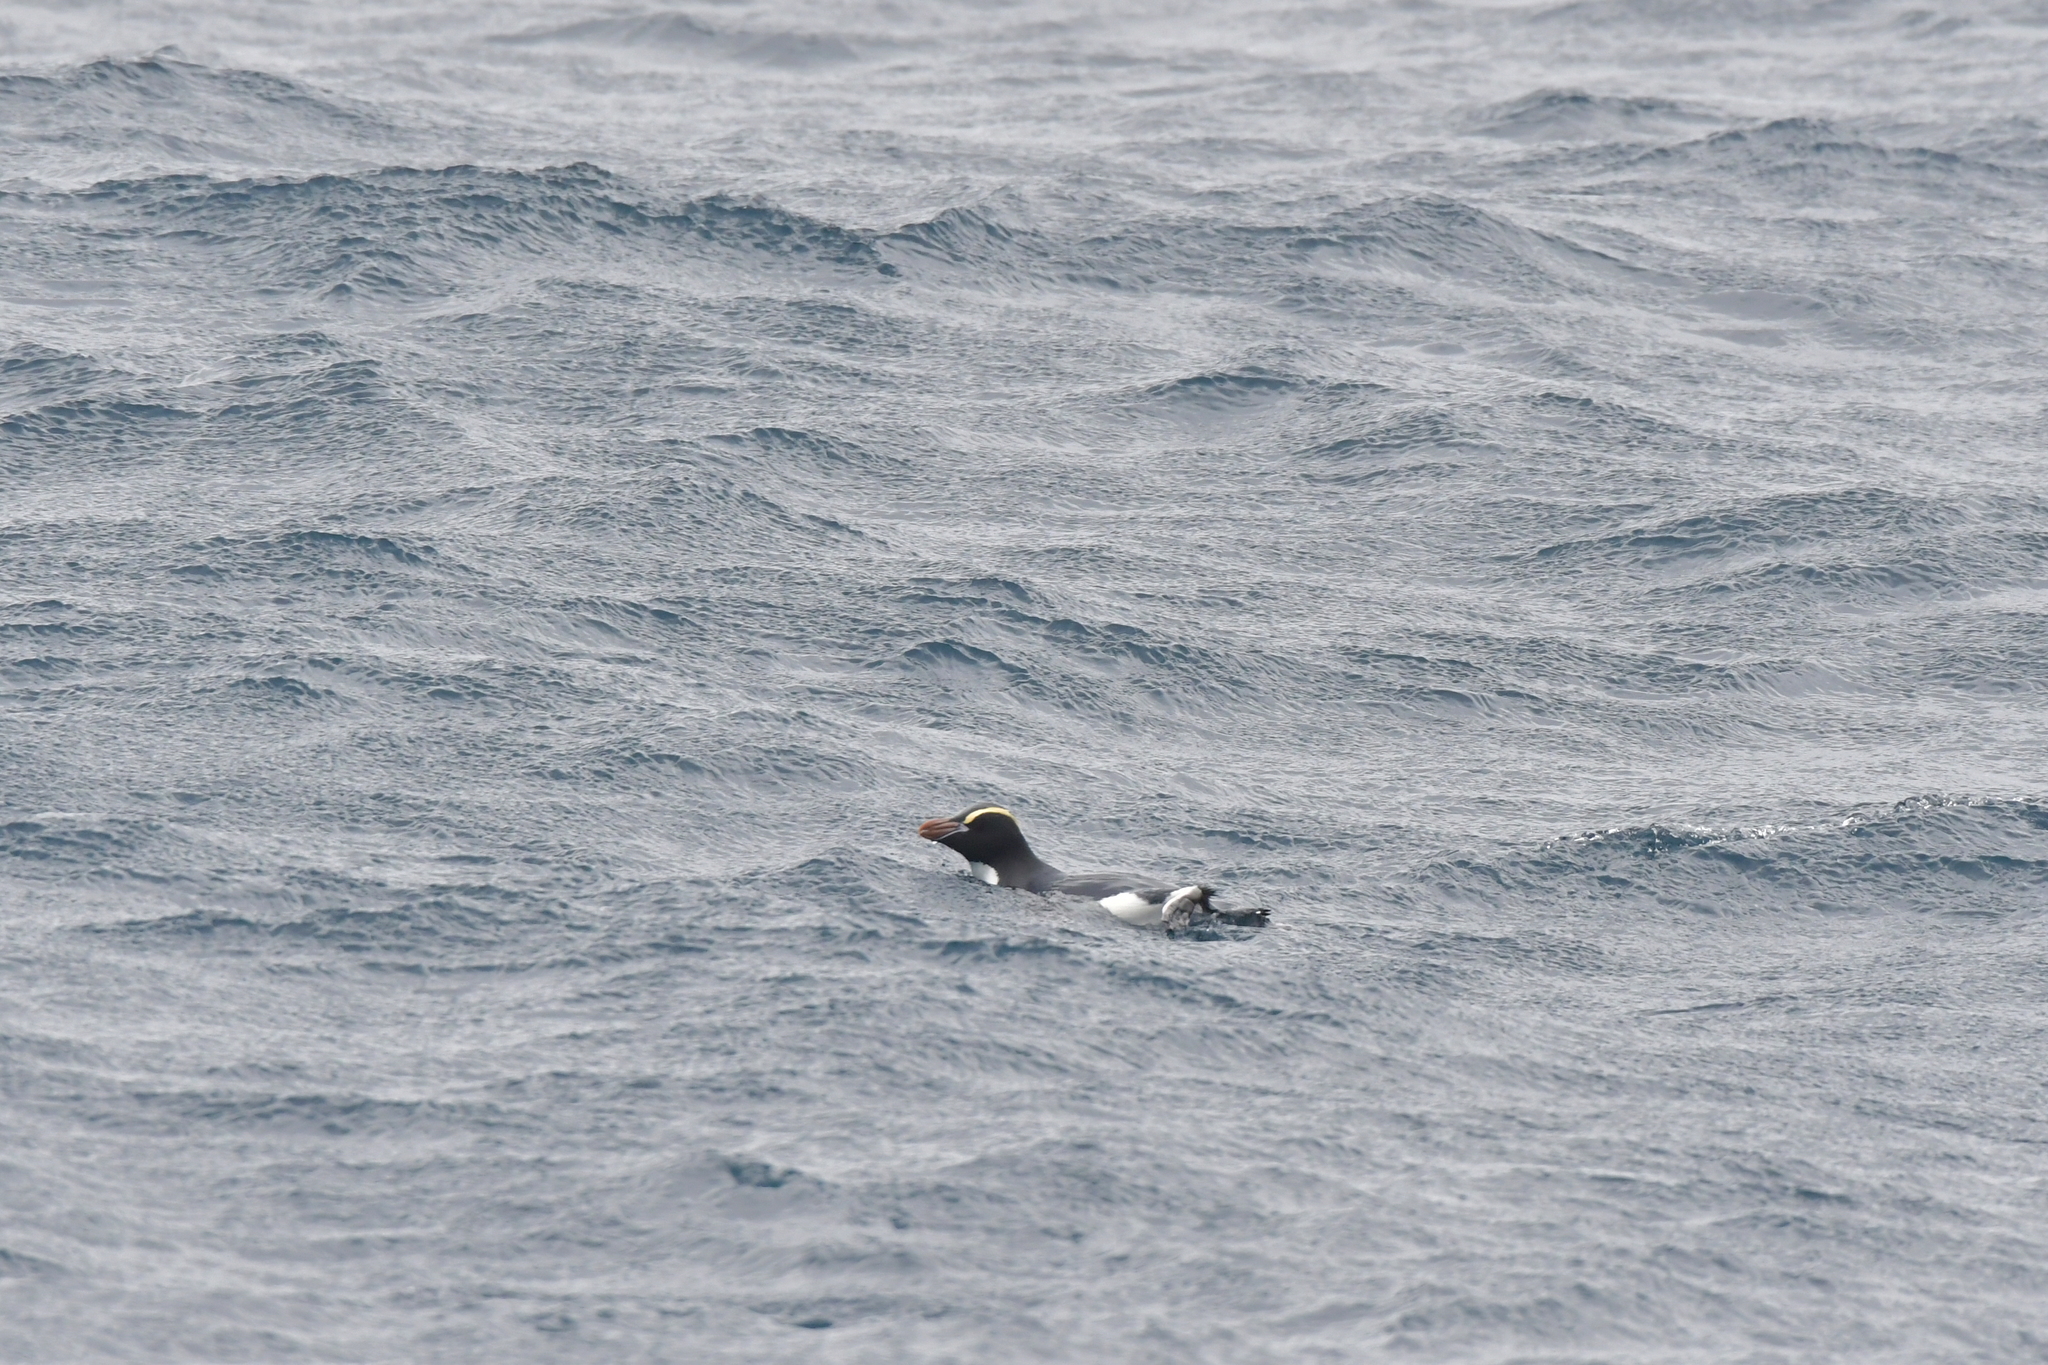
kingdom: Animalia
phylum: Chordata
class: Aves
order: Sphenisciformes
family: Spheniscidae
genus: Eudyptes
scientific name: Eudyptes sclateri
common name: Erect-crested penguin
